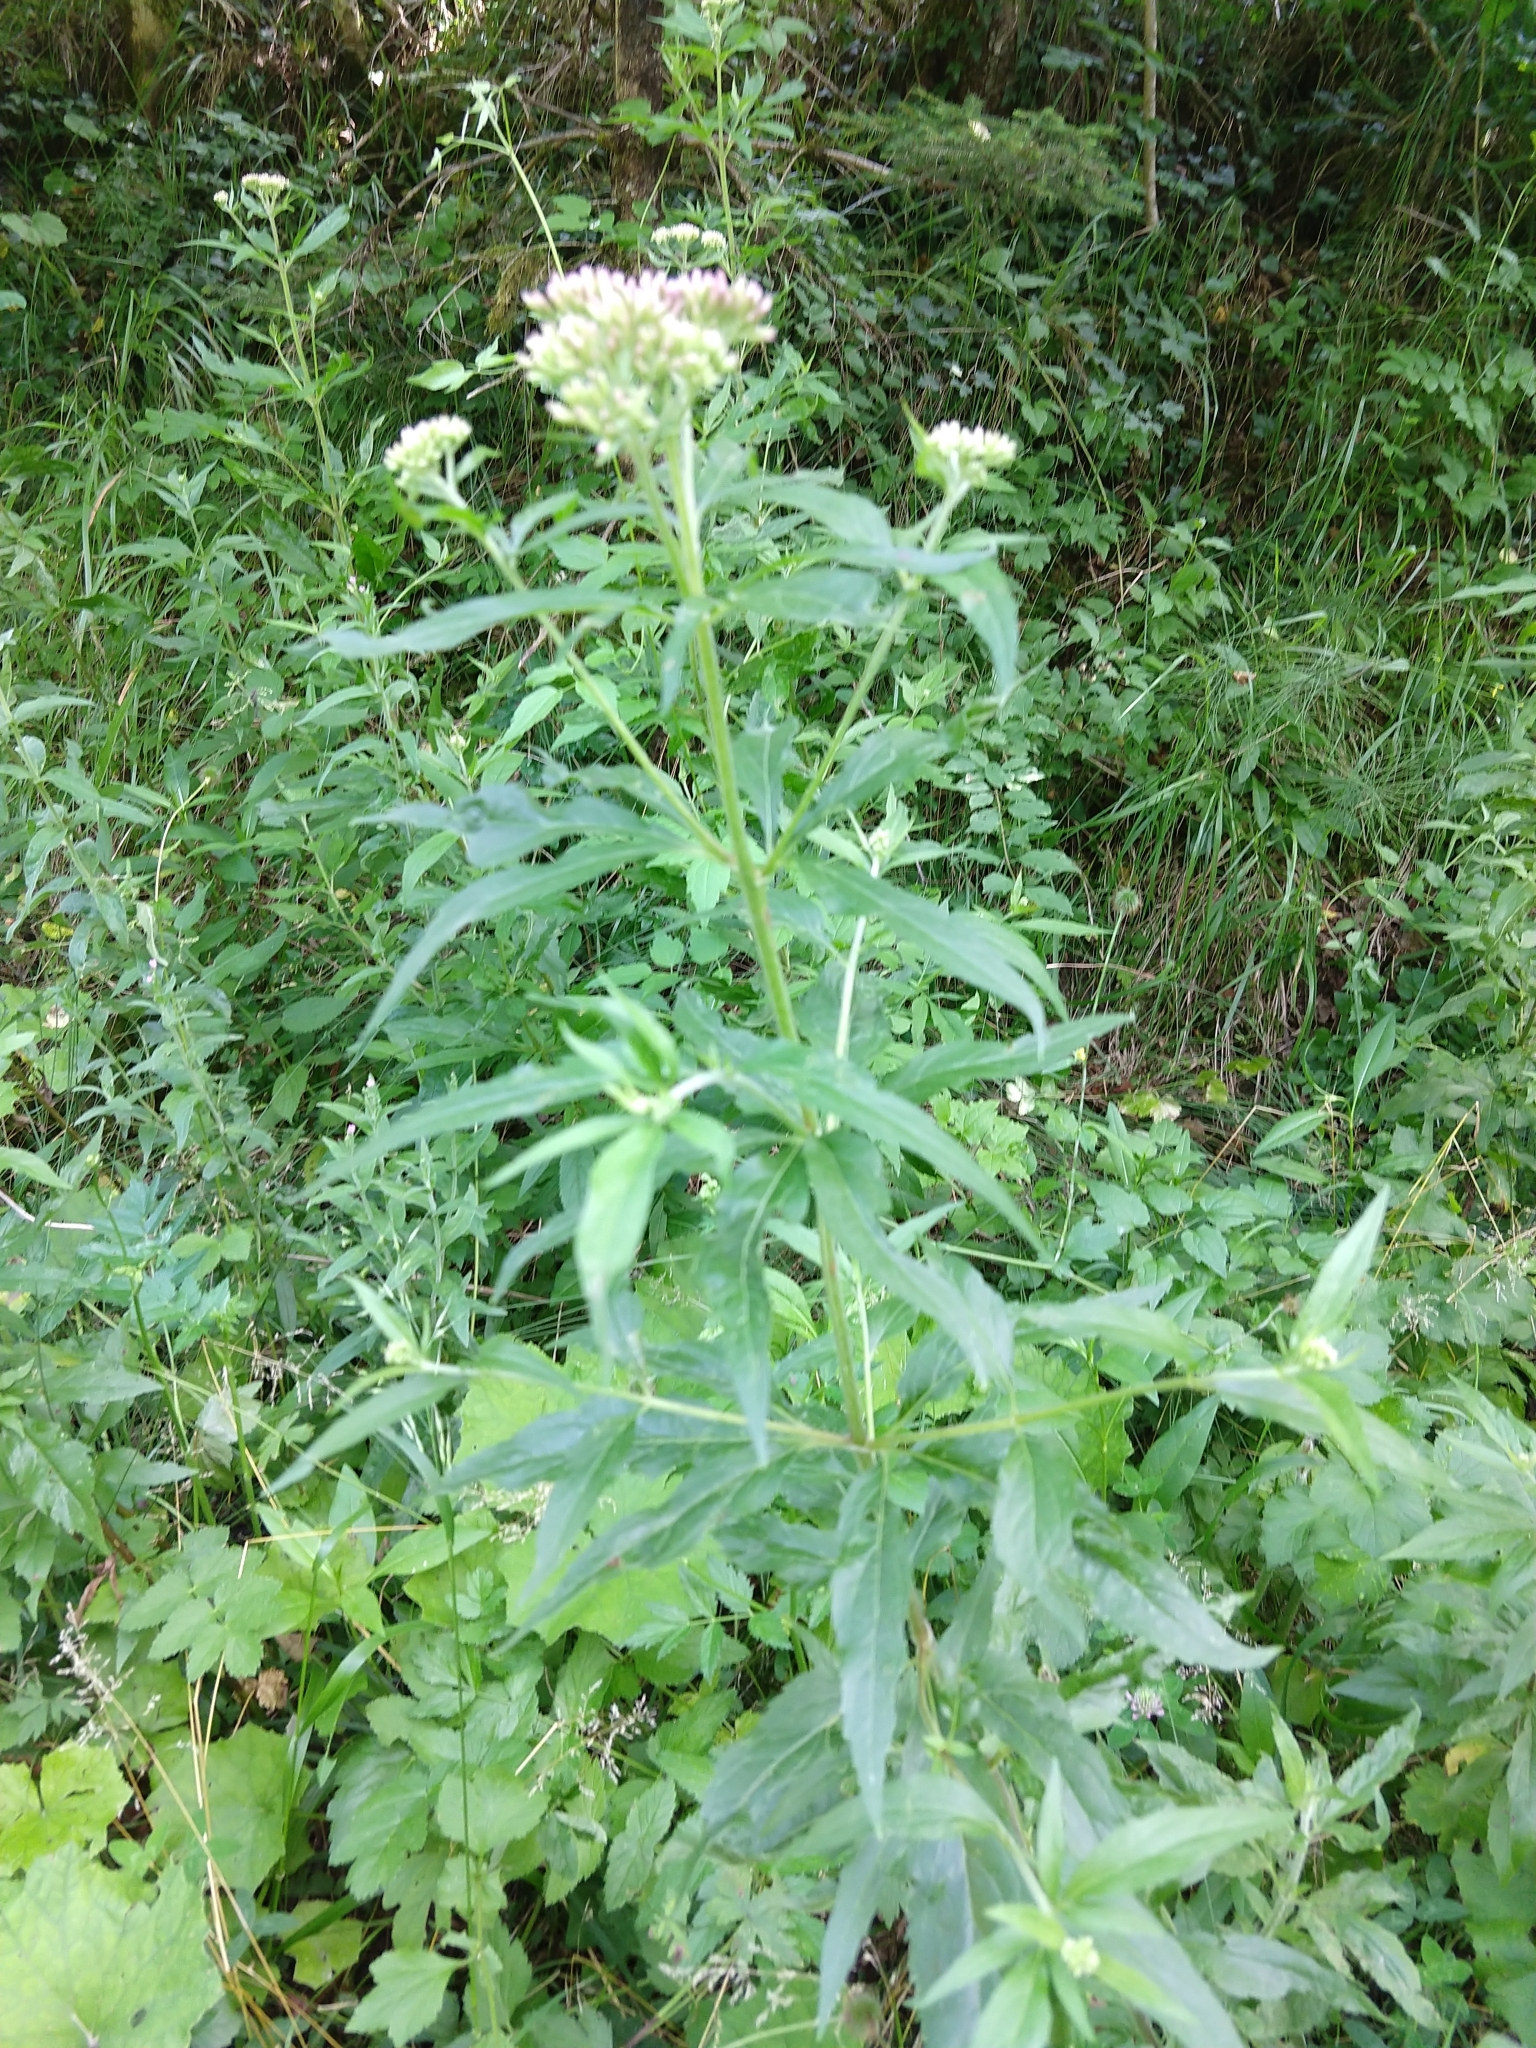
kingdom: Plantae
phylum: Tracheophyta
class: Magnoliopsida
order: Asterales
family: Asteraceae
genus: Eupatorium
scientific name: Eupatorium cannabinum
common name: Hemp-agrimony
